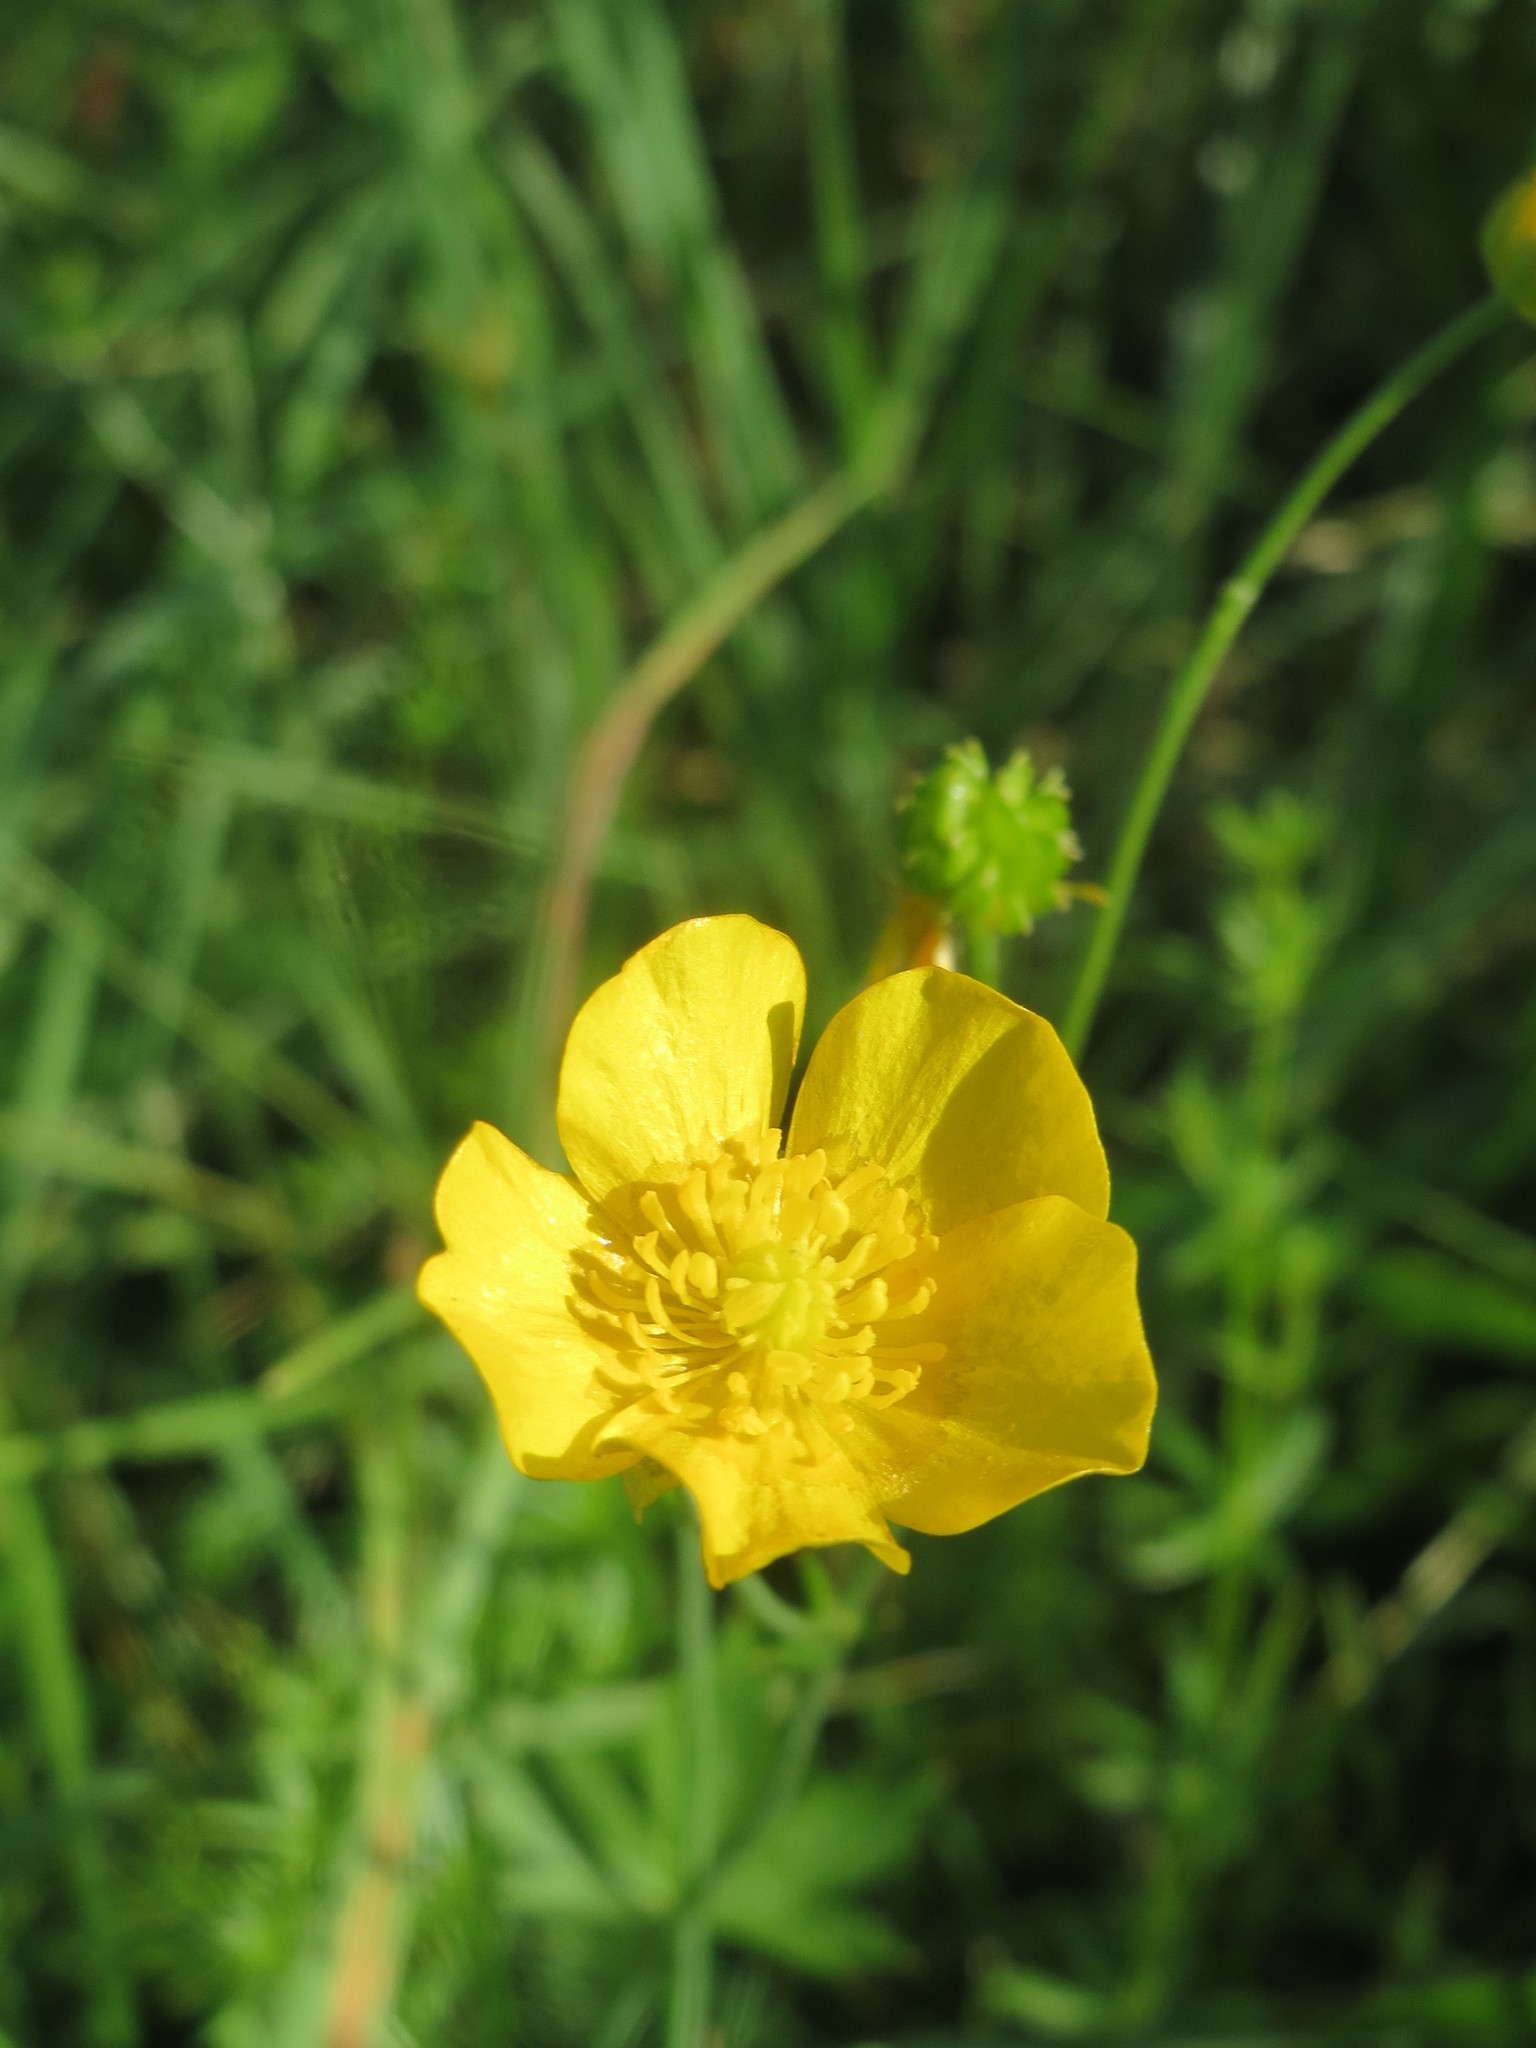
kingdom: Plantae
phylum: Tracheophyta
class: Magnoliopsida
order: Ranunculales
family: Ranunculaceae
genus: Ranunculus
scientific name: Ranunculus acris
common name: Meadow buttercup
